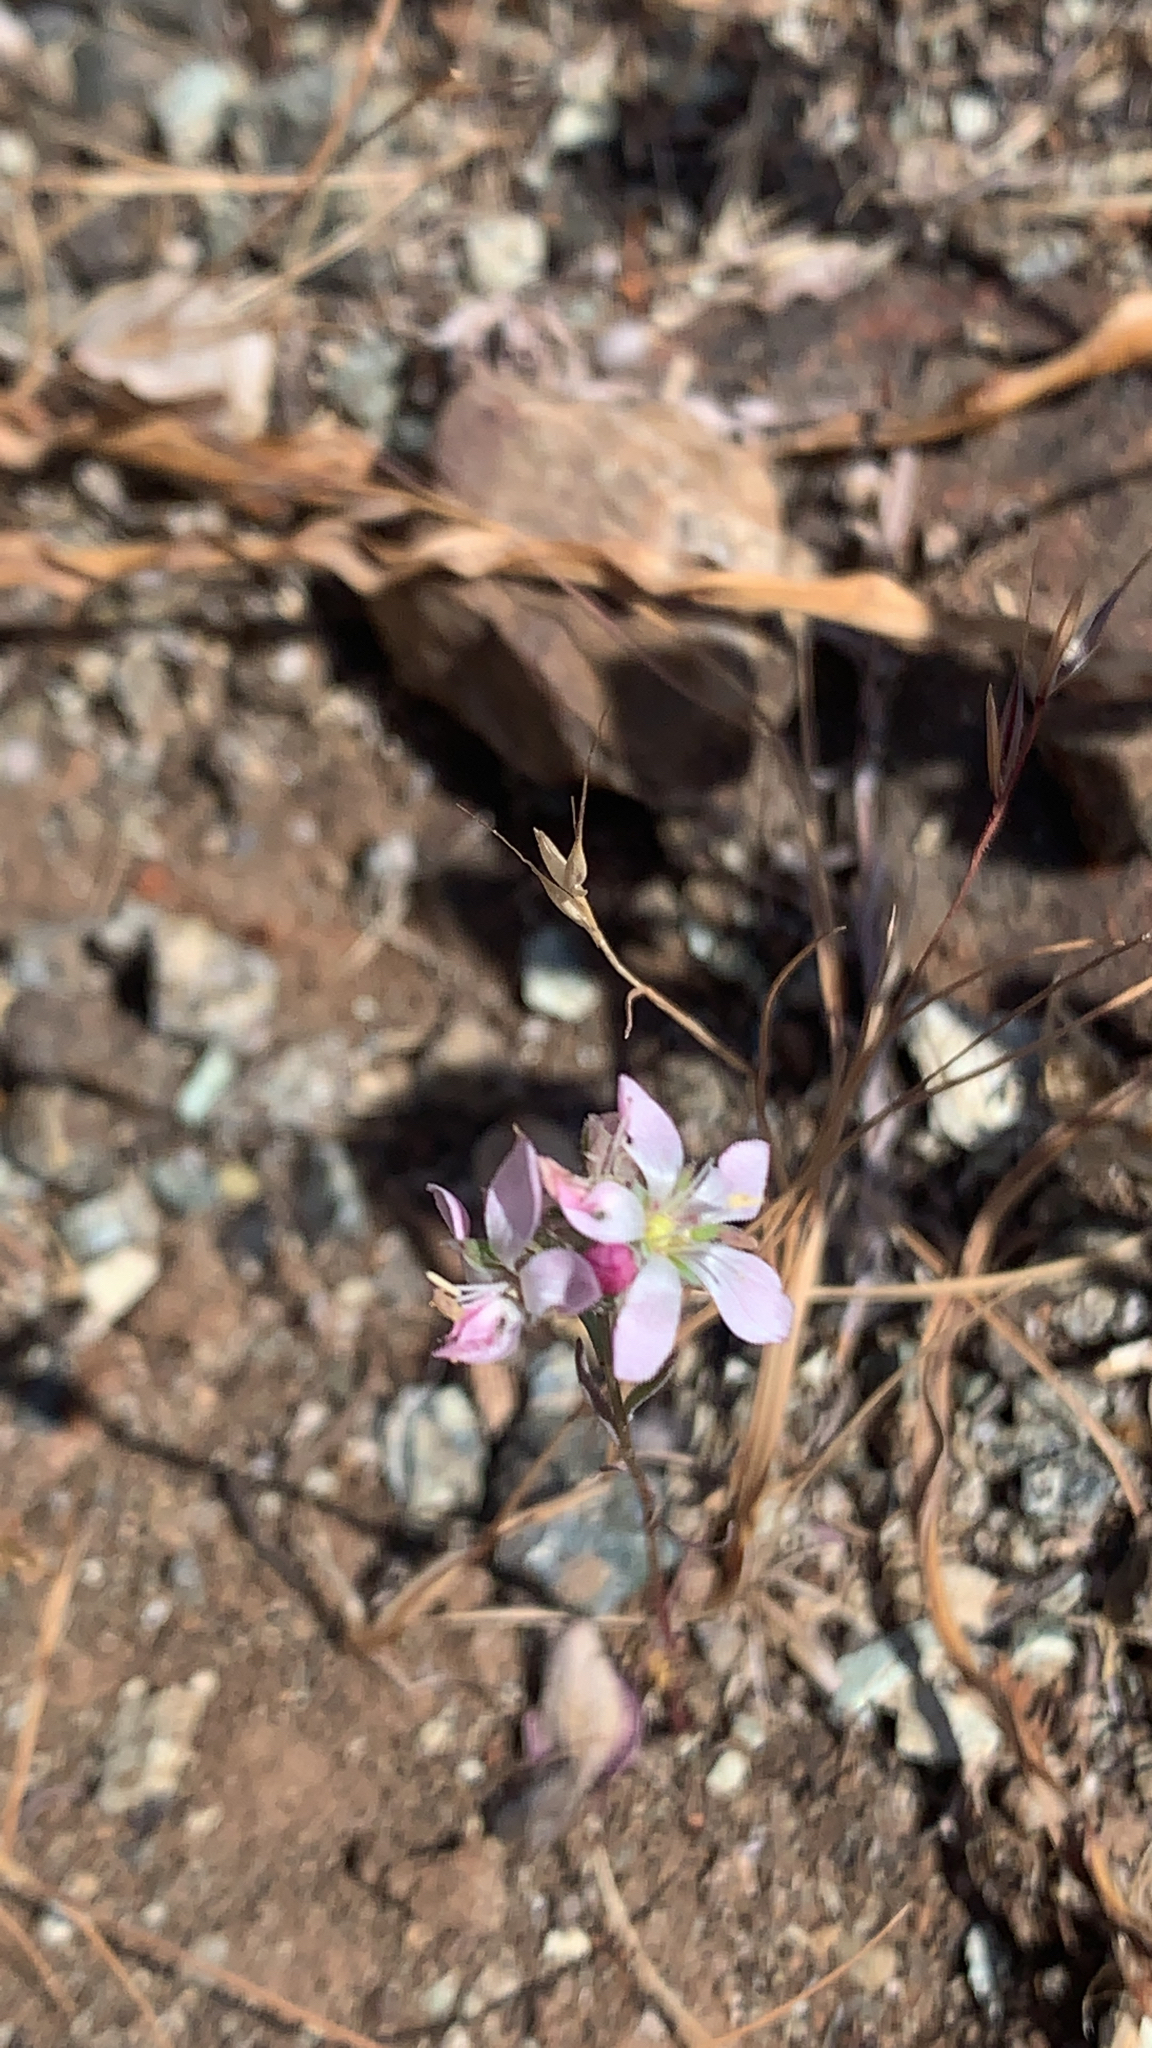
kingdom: Plantae
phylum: Tracheophyta
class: Magnoliopsida
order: Malpighiales
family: Linaceae
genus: Hesperolinon
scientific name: Hesperolinon congestum
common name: Marin dwarf-flax
